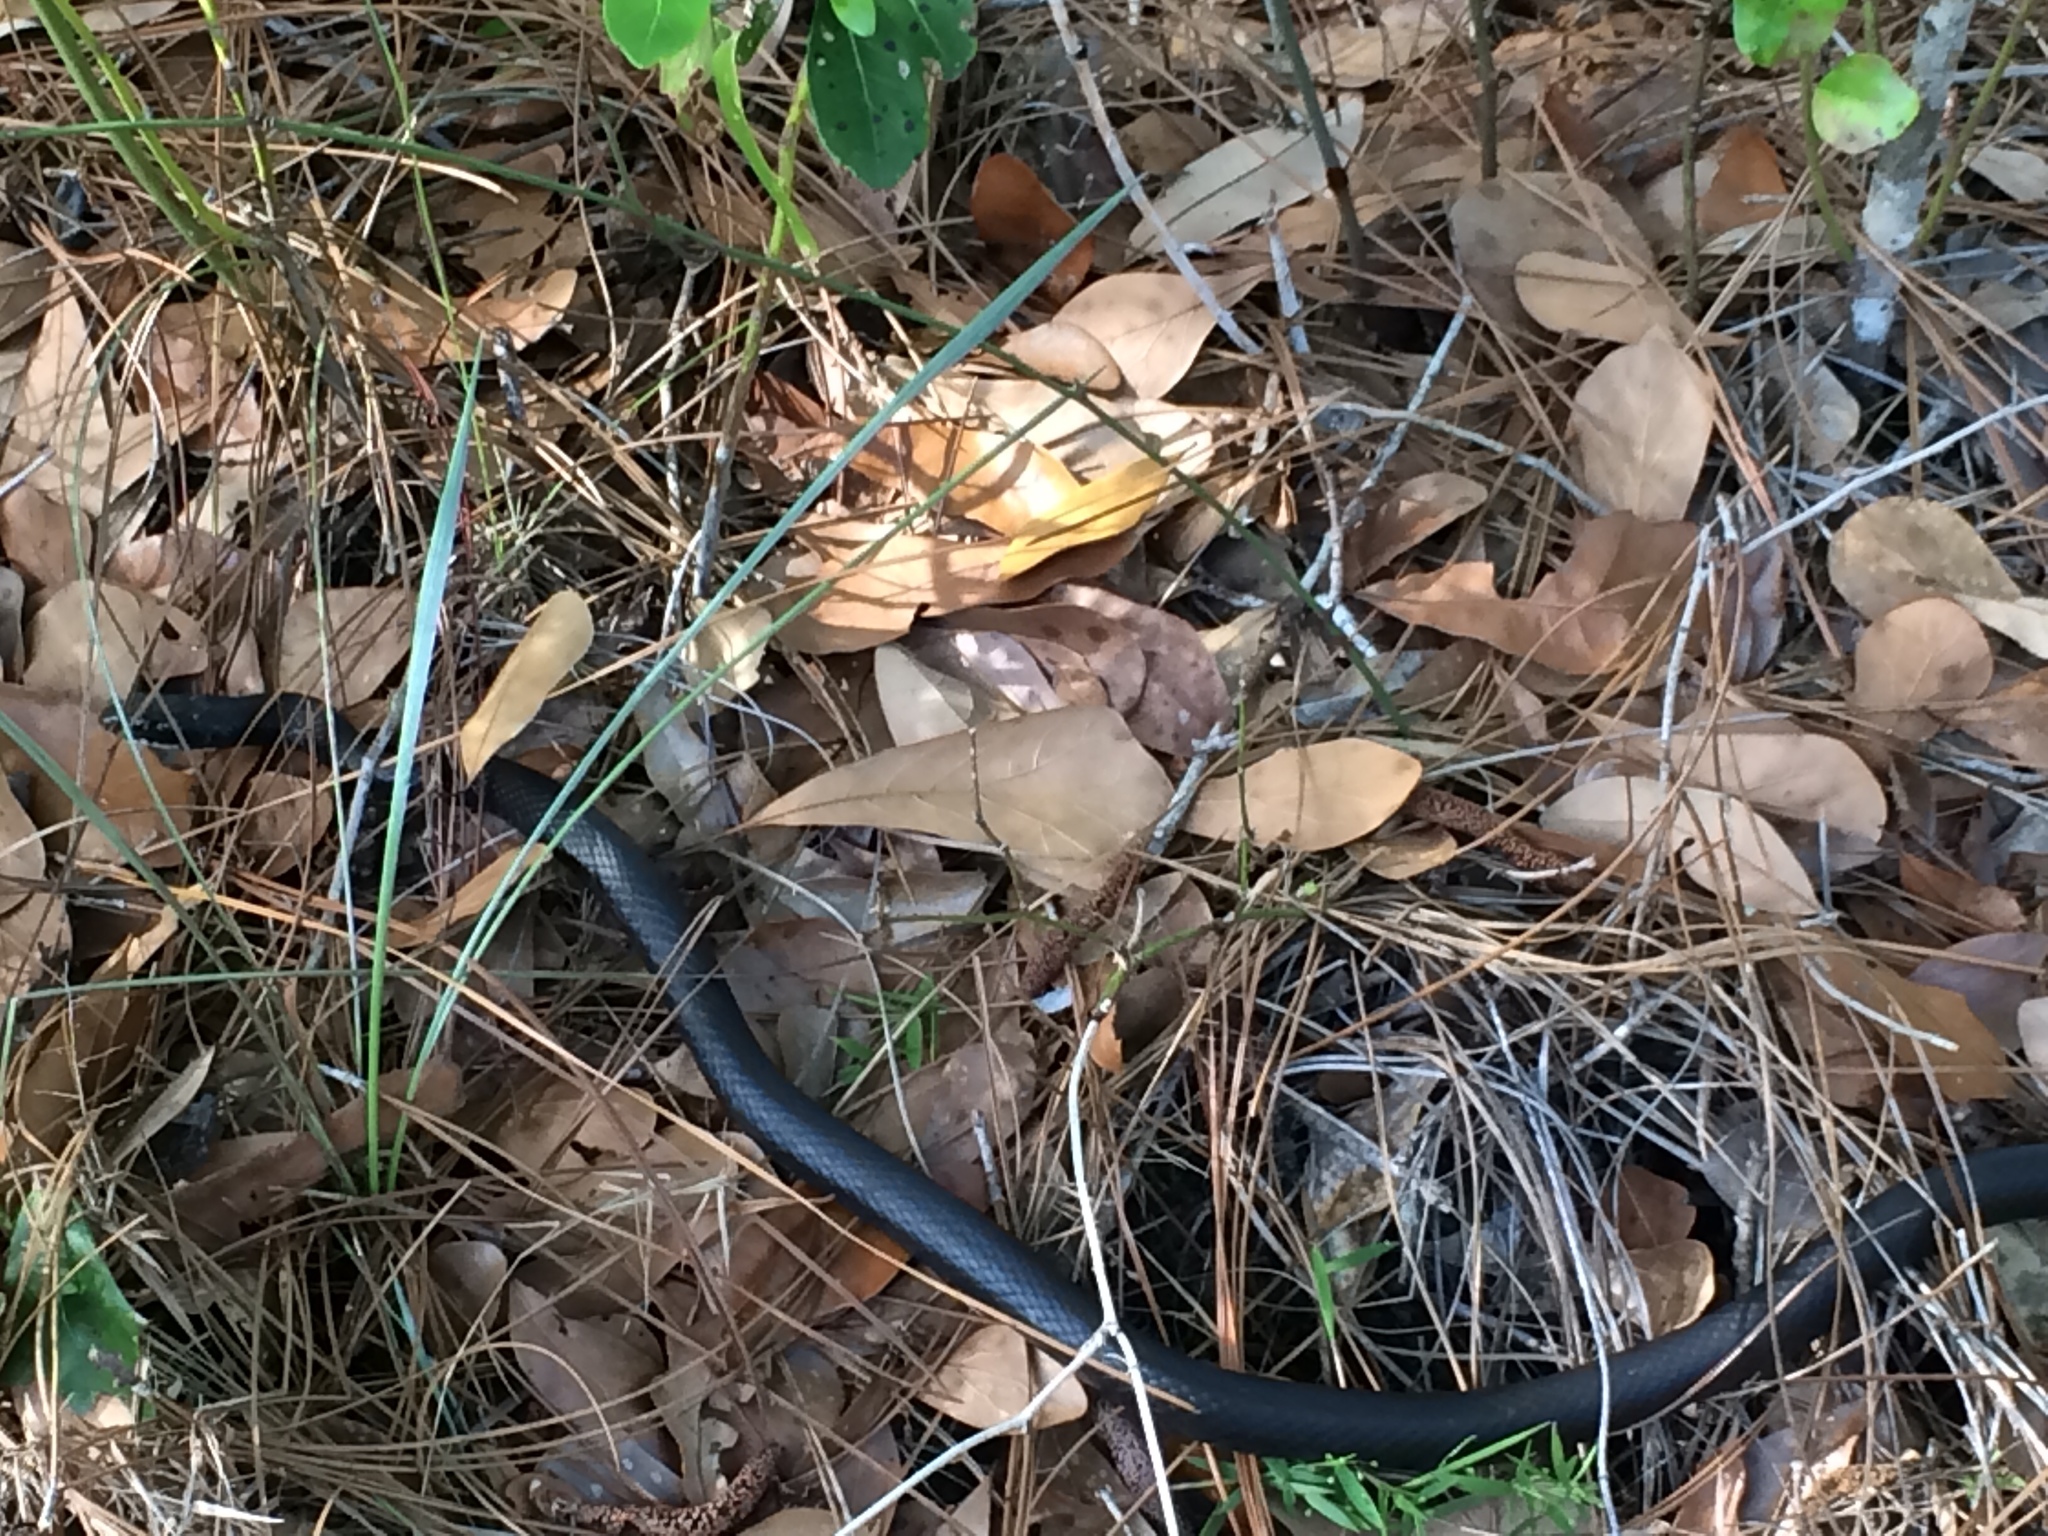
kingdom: Animalia
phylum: Chordata
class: Squamata
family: Colubridae
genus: Coluber
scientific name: Coluber constrictor
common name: Eastern racer
